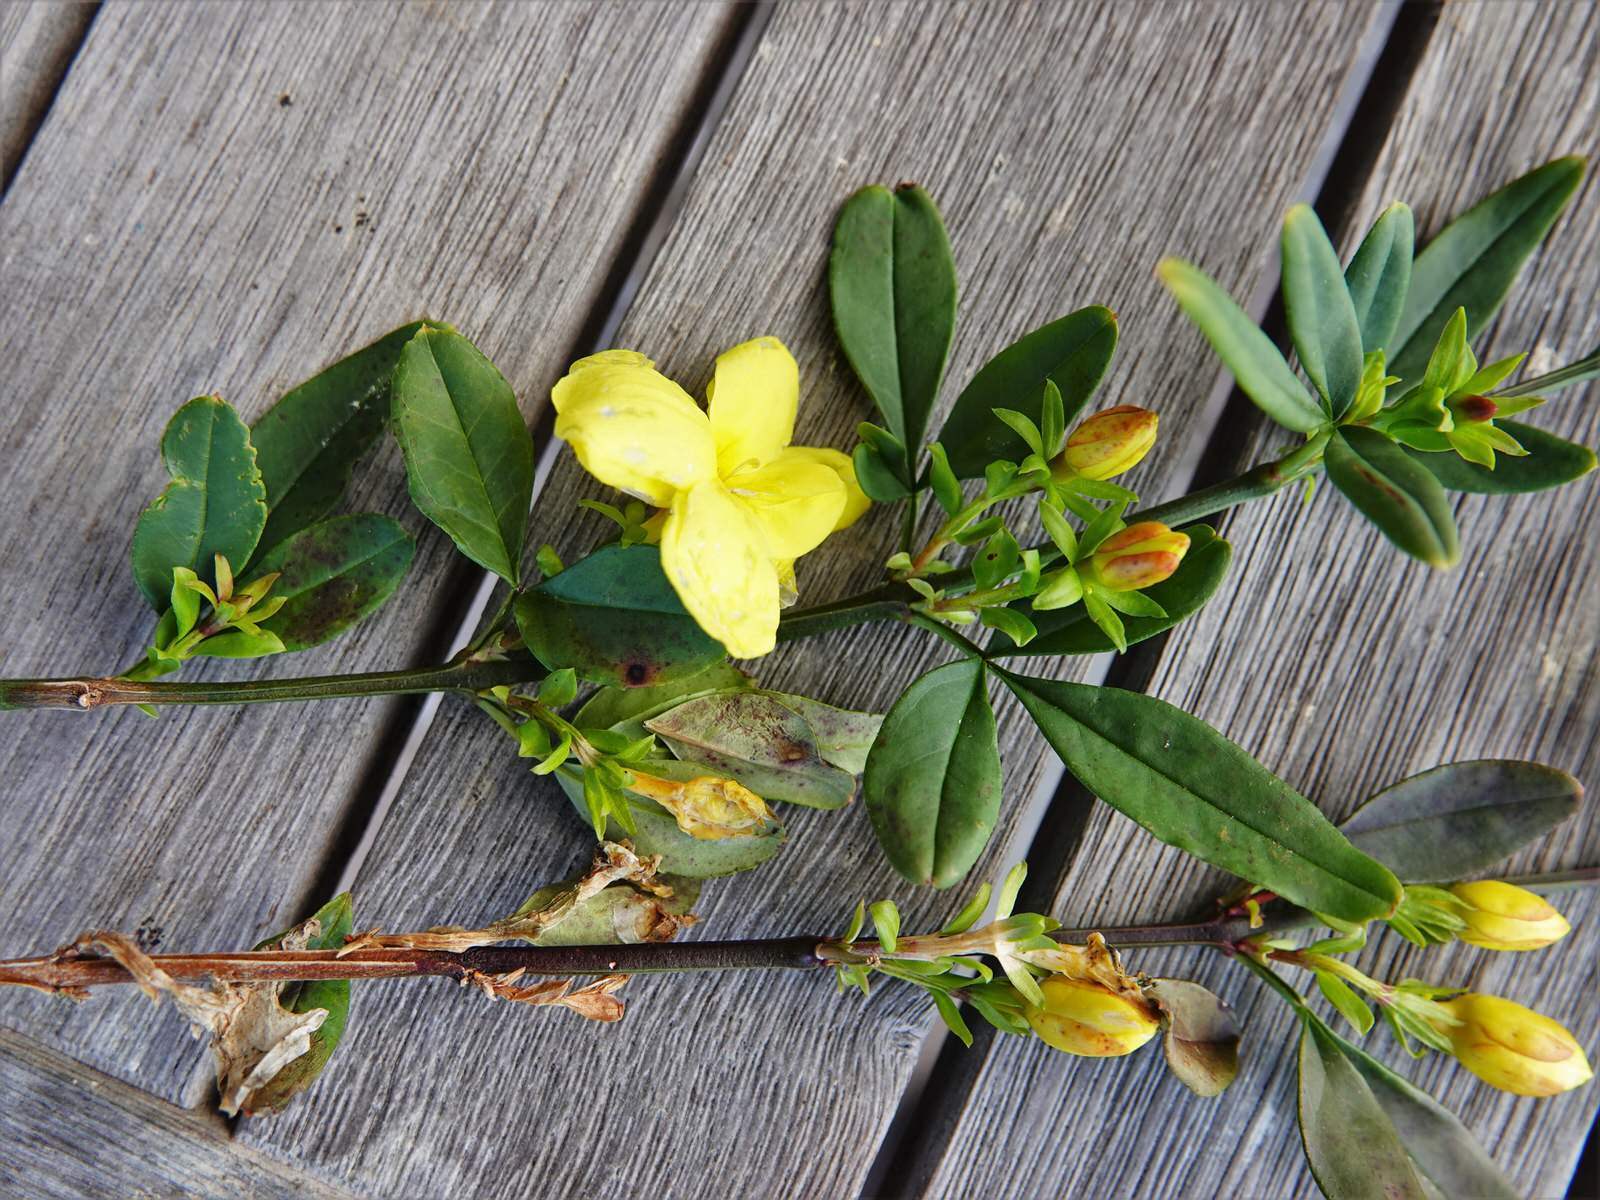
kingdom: Plantae
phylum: Tracheophyta
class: Magnoliopsida
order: Lamiales
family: Oleaceae
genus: Jasminum
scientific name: Jasminum mesnyi
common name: Japanese jasmine
